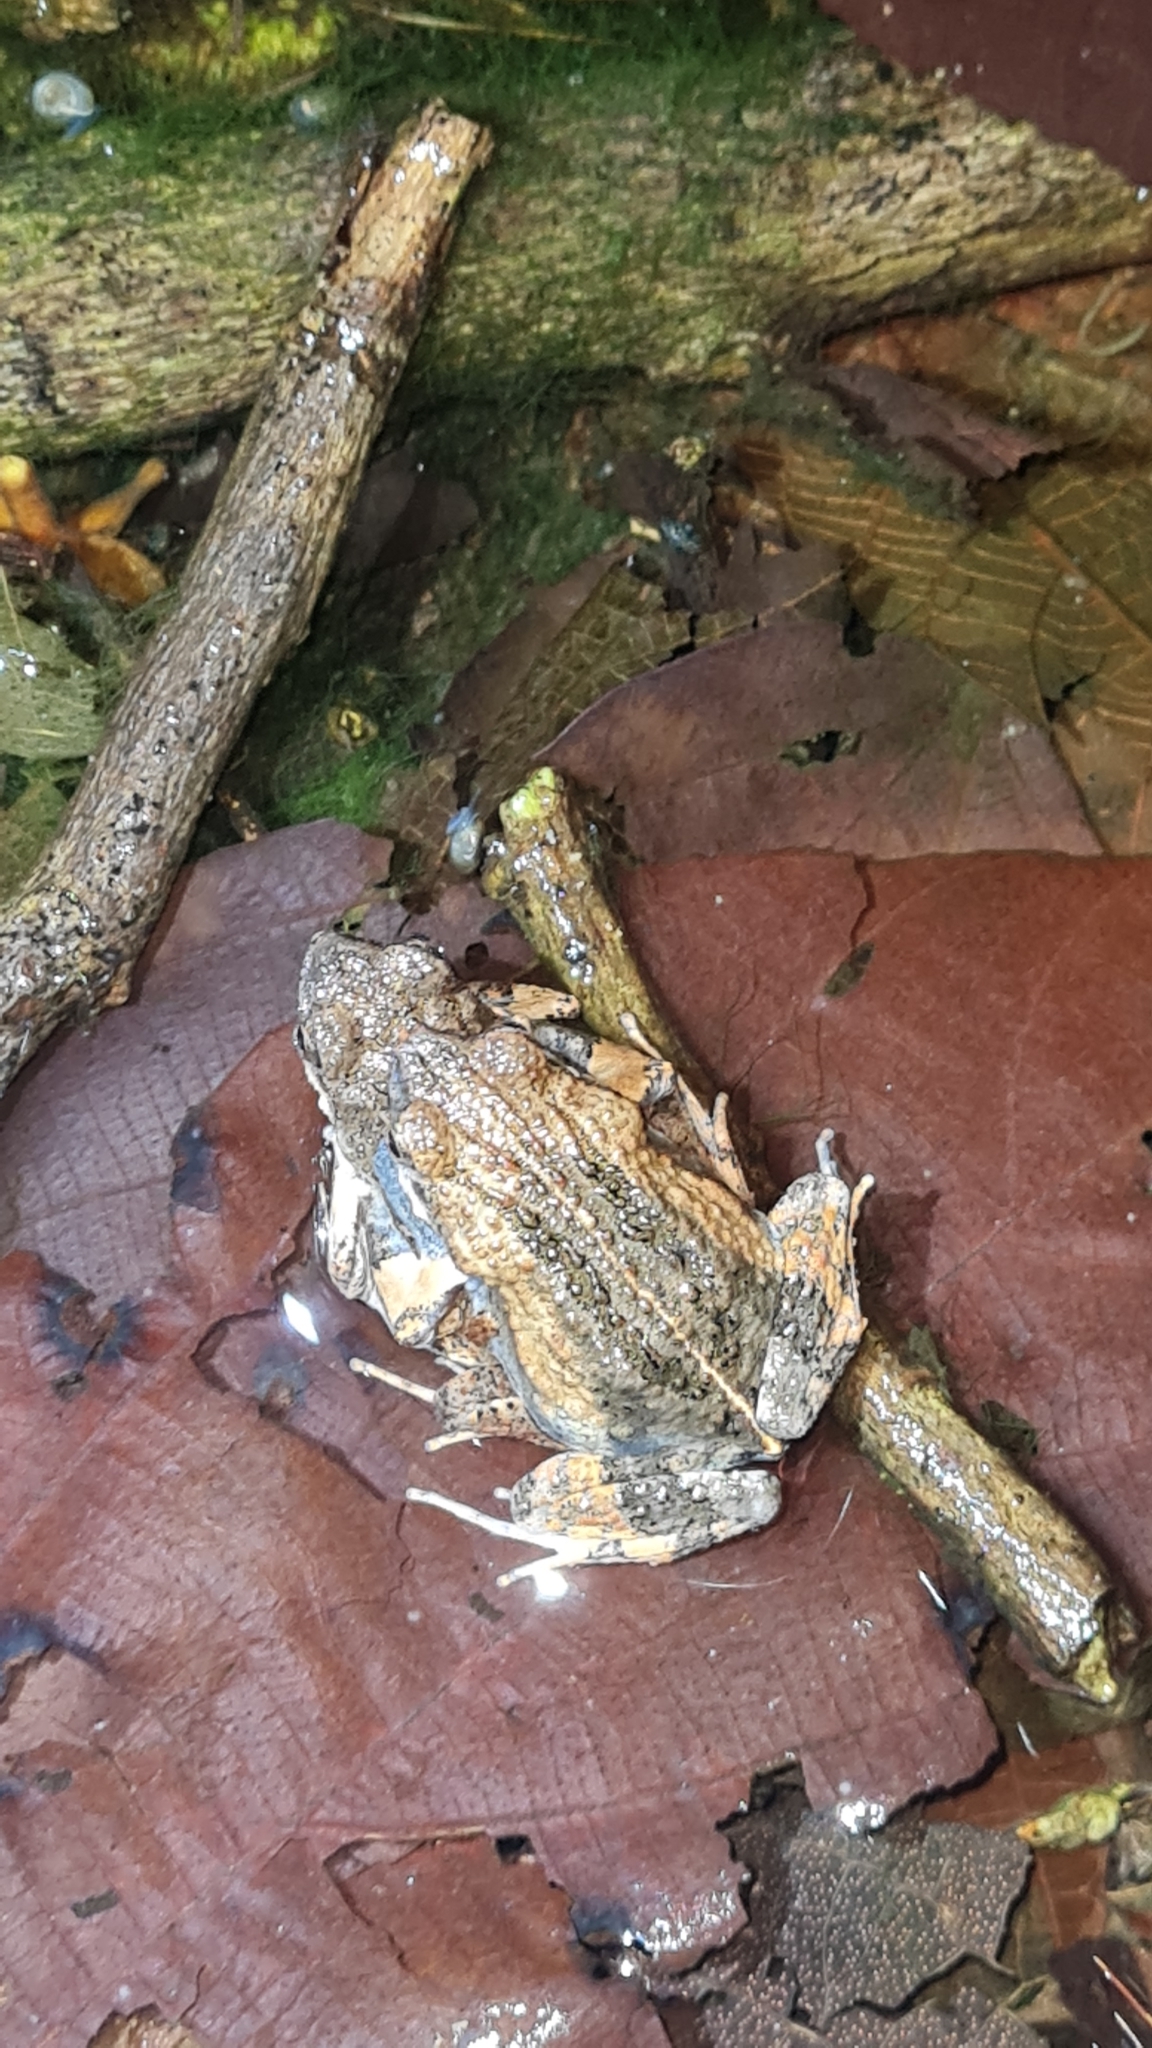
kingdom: Animalia
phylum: Chordata
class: Amphibia
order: Anura
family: Leptodactylidae
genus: Engystomops
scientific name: Engystomops pustulosus
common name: Tungara frog
